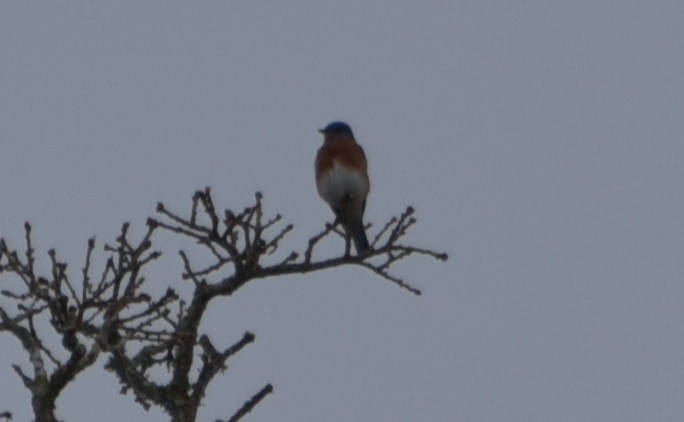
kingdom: Animalia
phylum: Chordata
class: Aves
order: Passeriformes
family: Turdidae
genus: Sialia
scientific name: Sialia sialis
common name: Eastern bluebird
